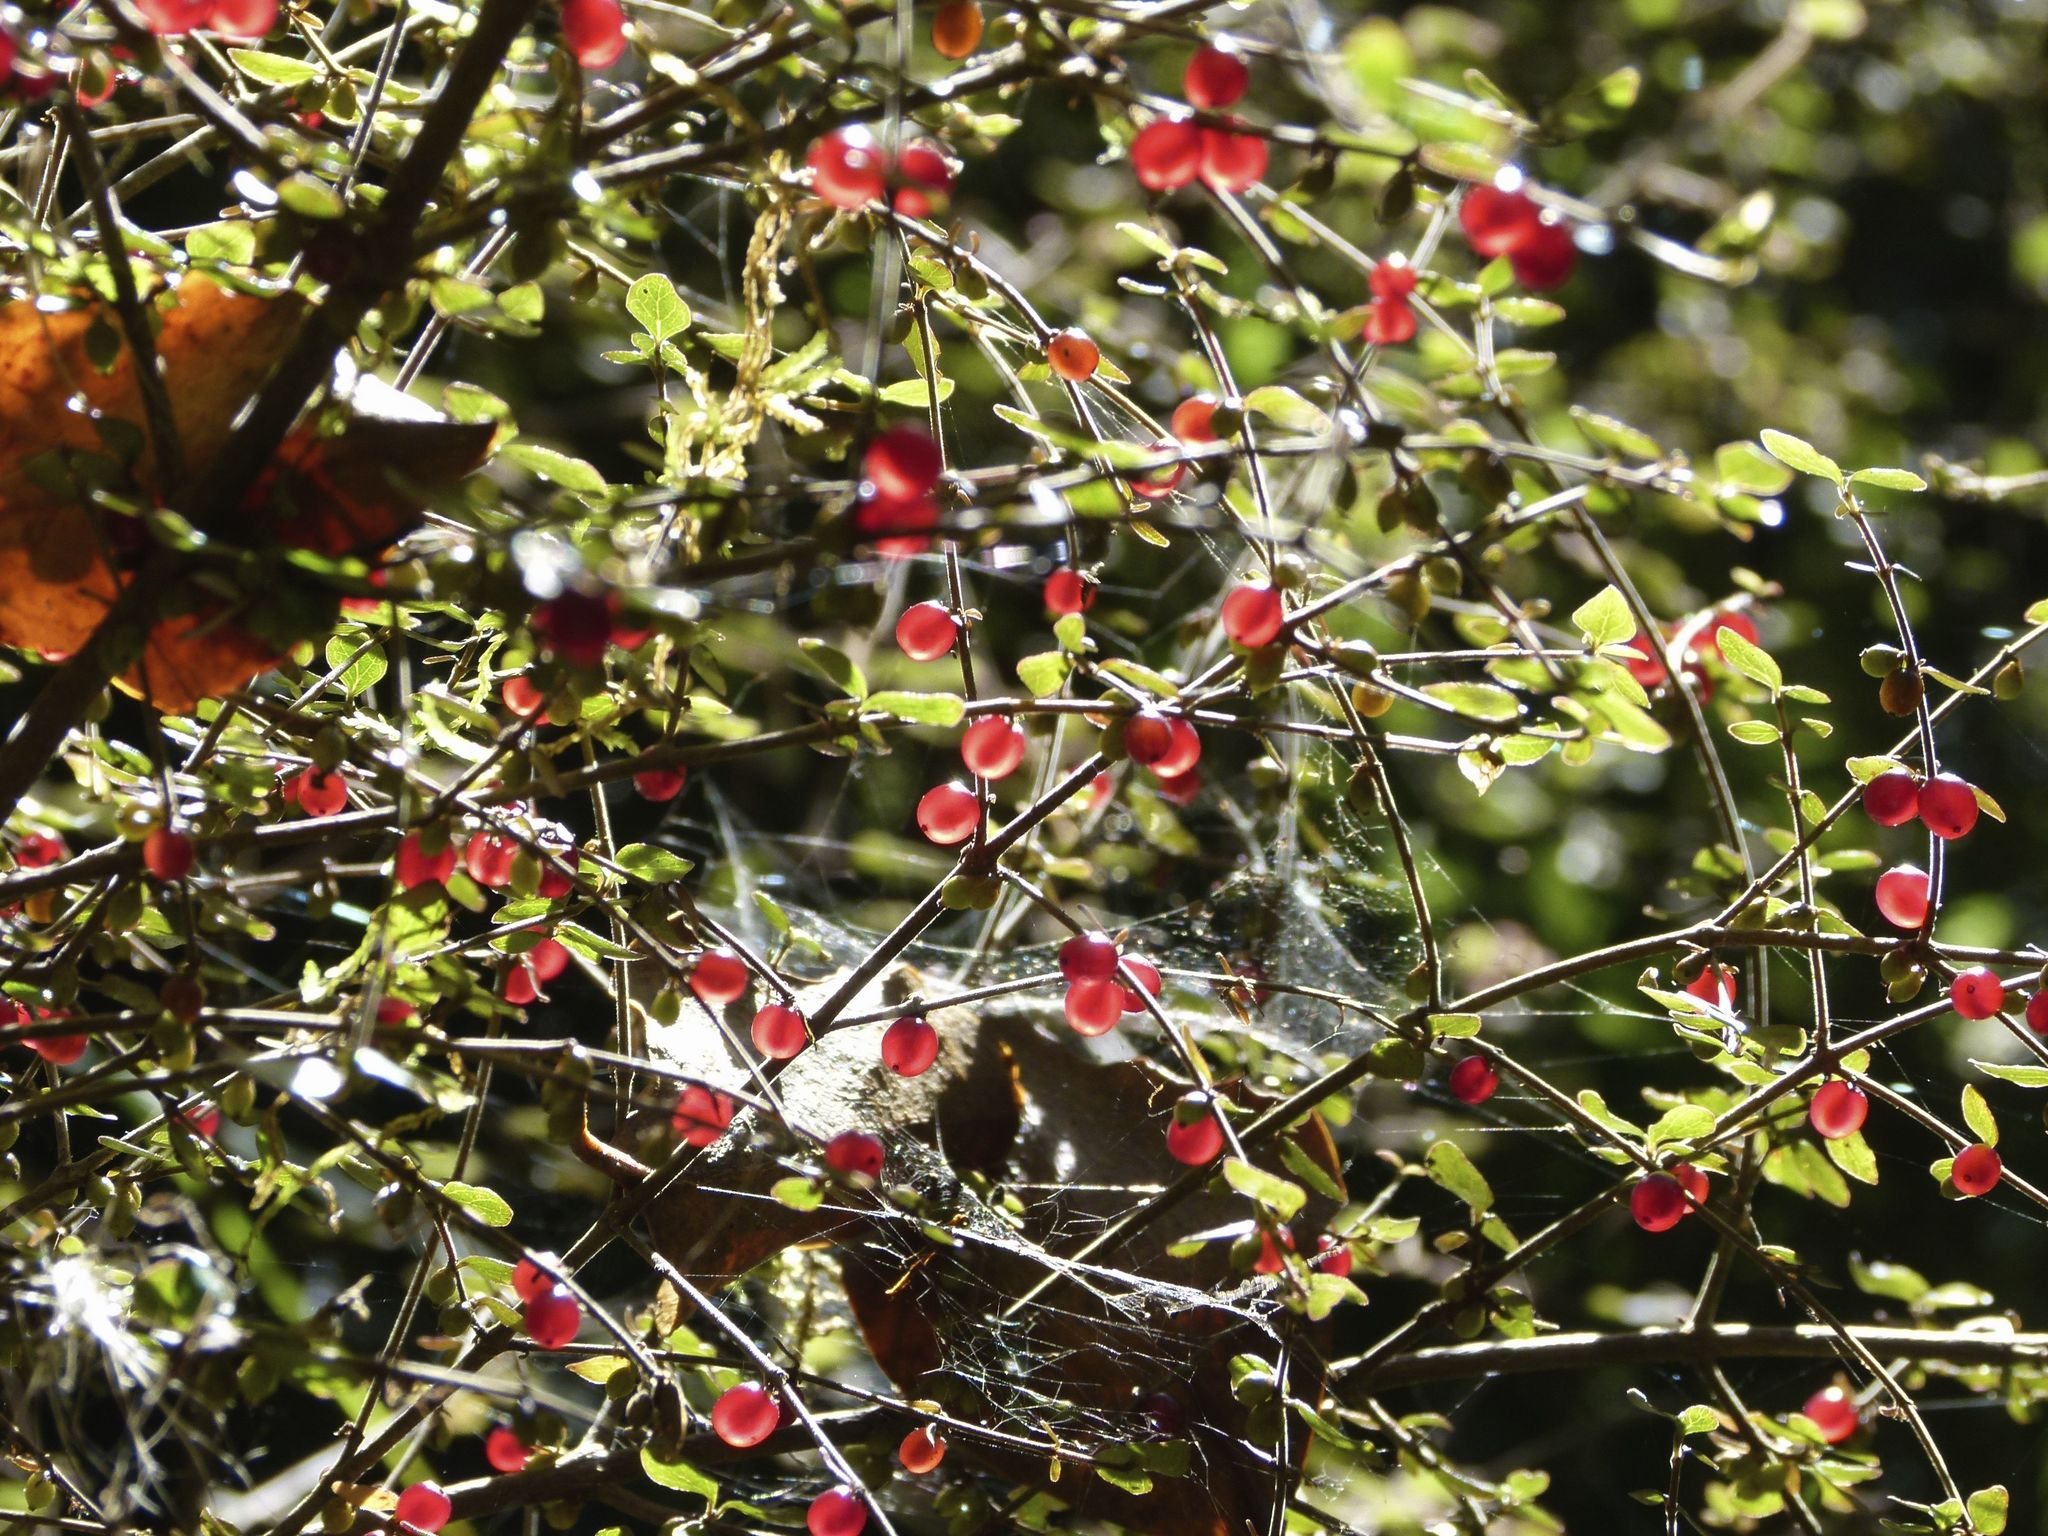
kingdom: Plantae
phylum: Tracheophyta
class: Magnoliopsida
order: Gentianales
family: Rubiaceae
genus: Coprosma
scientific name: Coprosma rhamnoides
